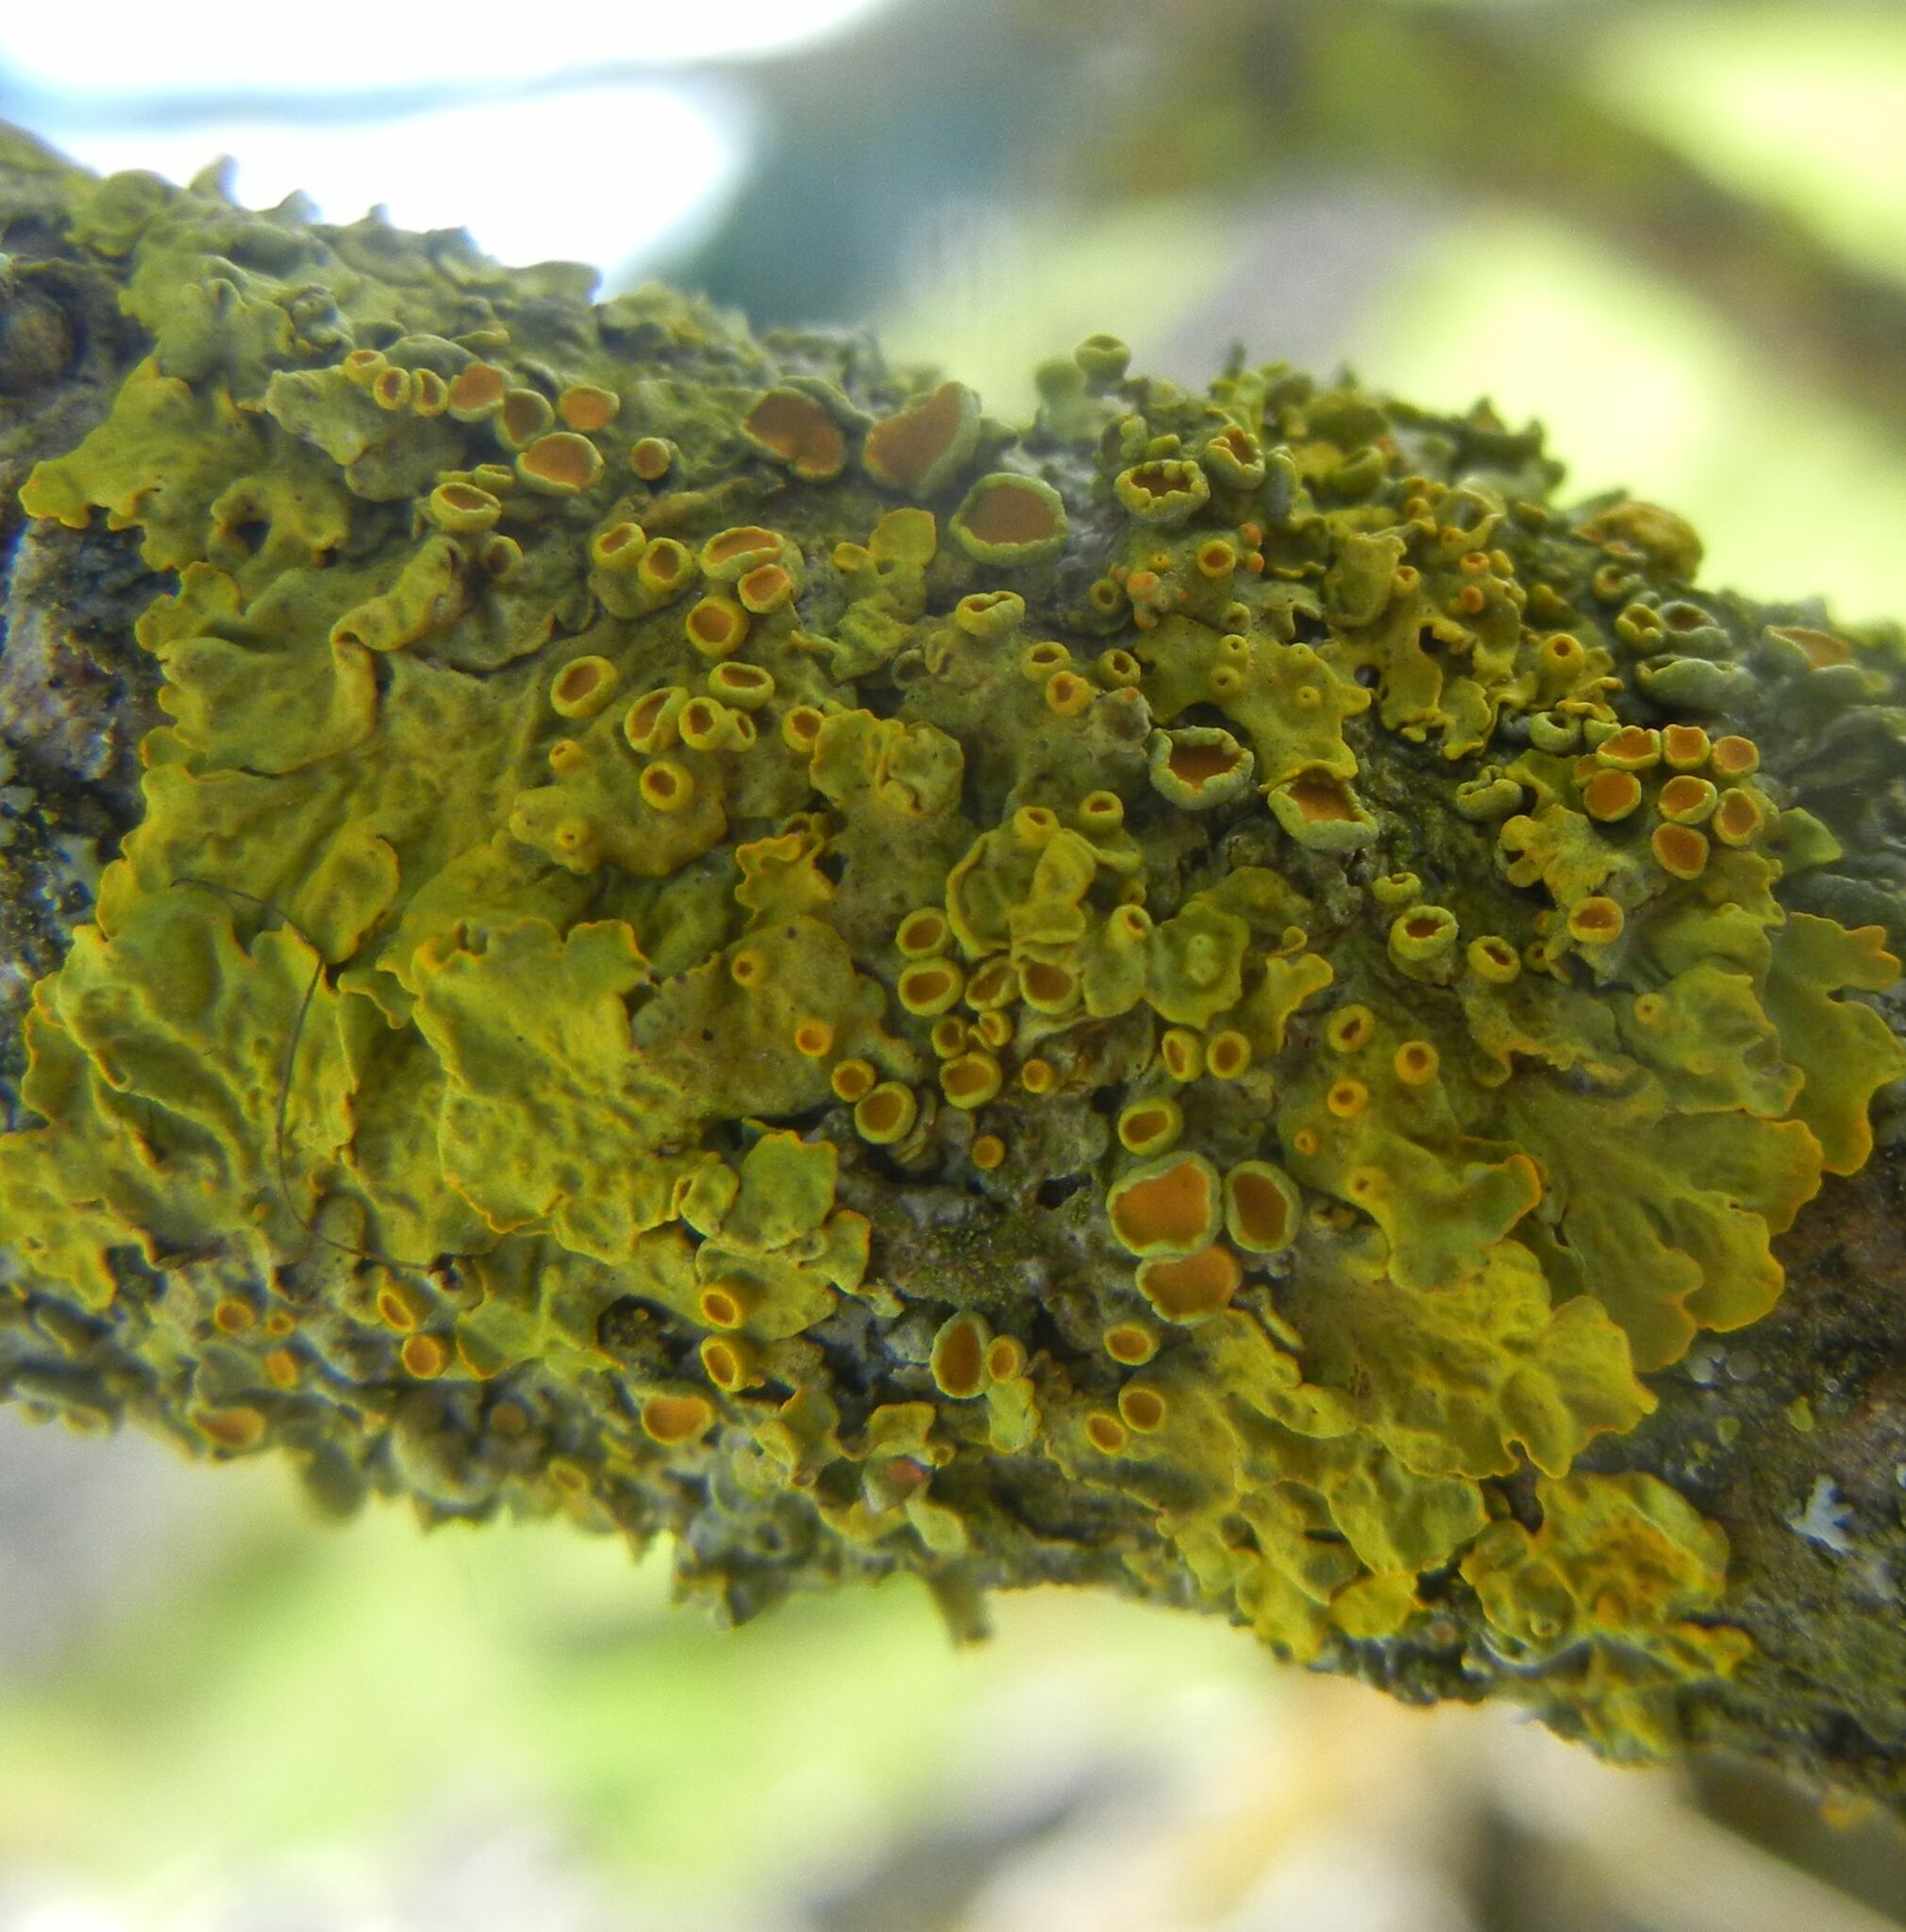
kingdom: Fungi
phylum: Ascomycota
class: Lecanoromycetes
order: Teloschistales
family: Teloschistaceae
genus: Xanthoria
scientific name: Xanthoria parietina
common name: Common orange lichen
